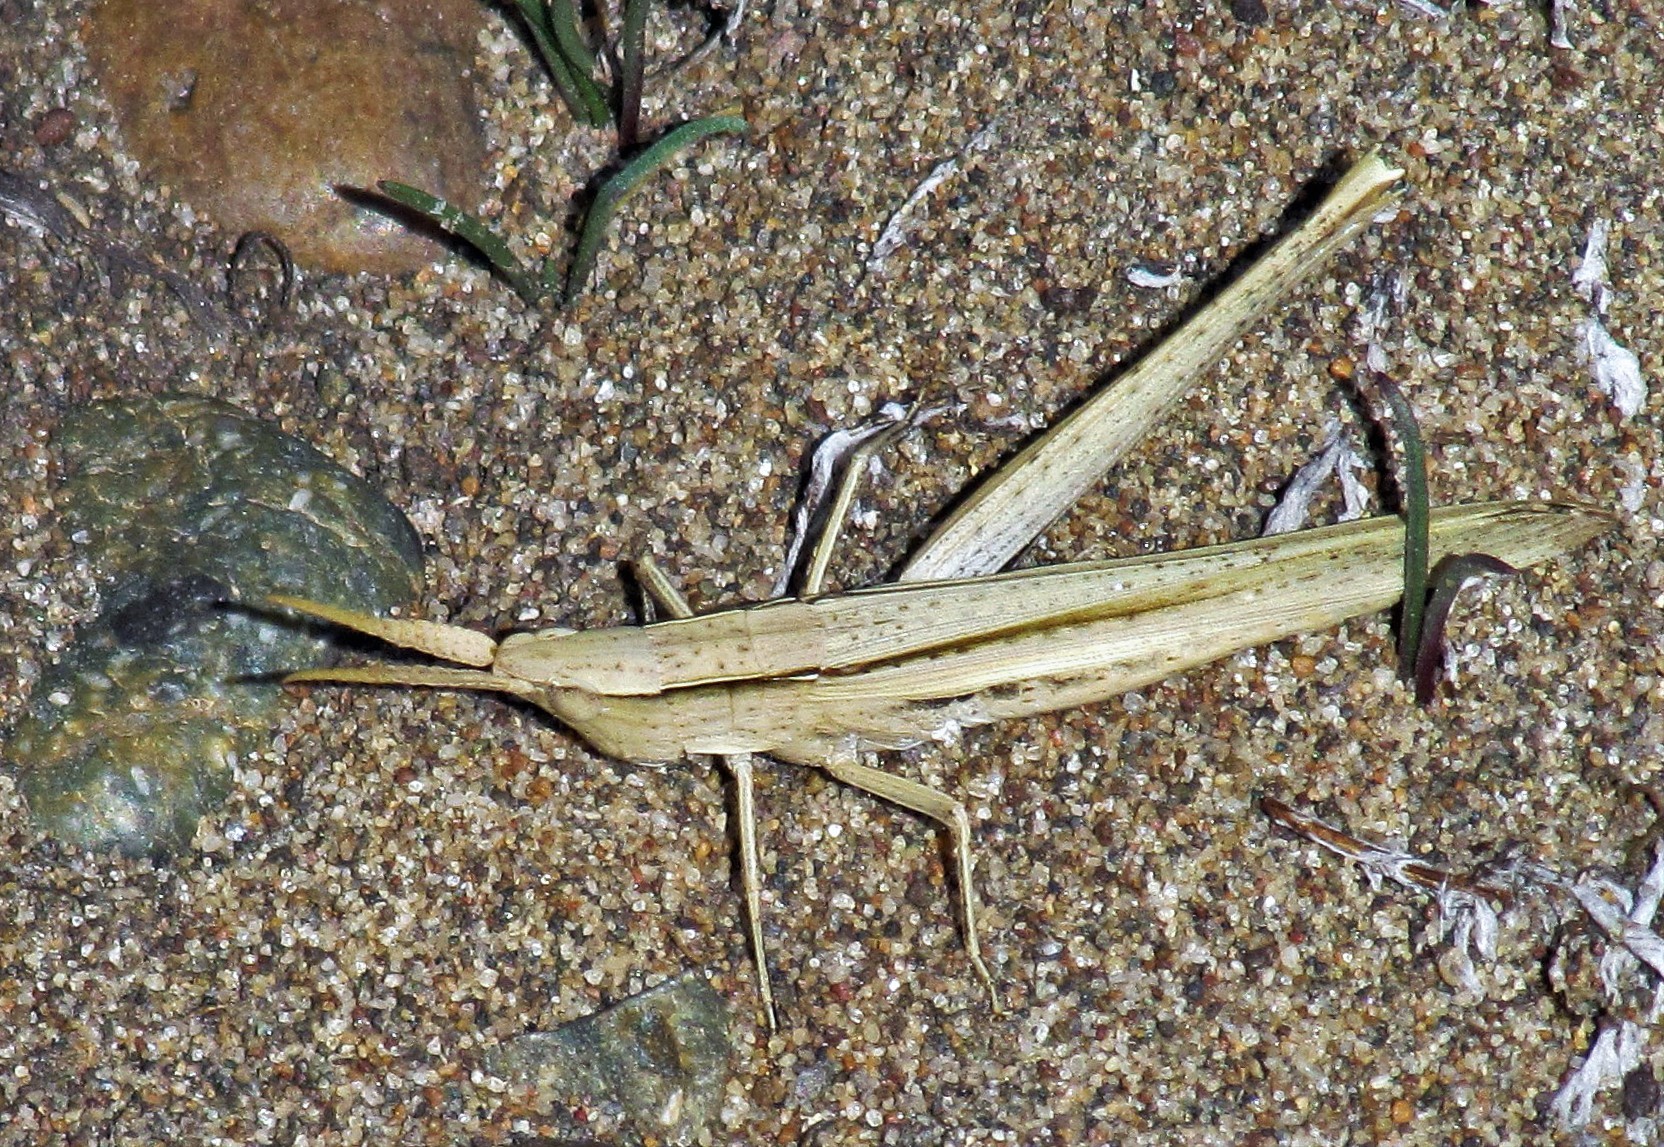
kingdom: Animalia
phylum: Arthropoda
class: Insecta
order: Orthoptera
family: Acrididae
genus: Allotruxalis
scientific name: Allotruxalis gracilis
